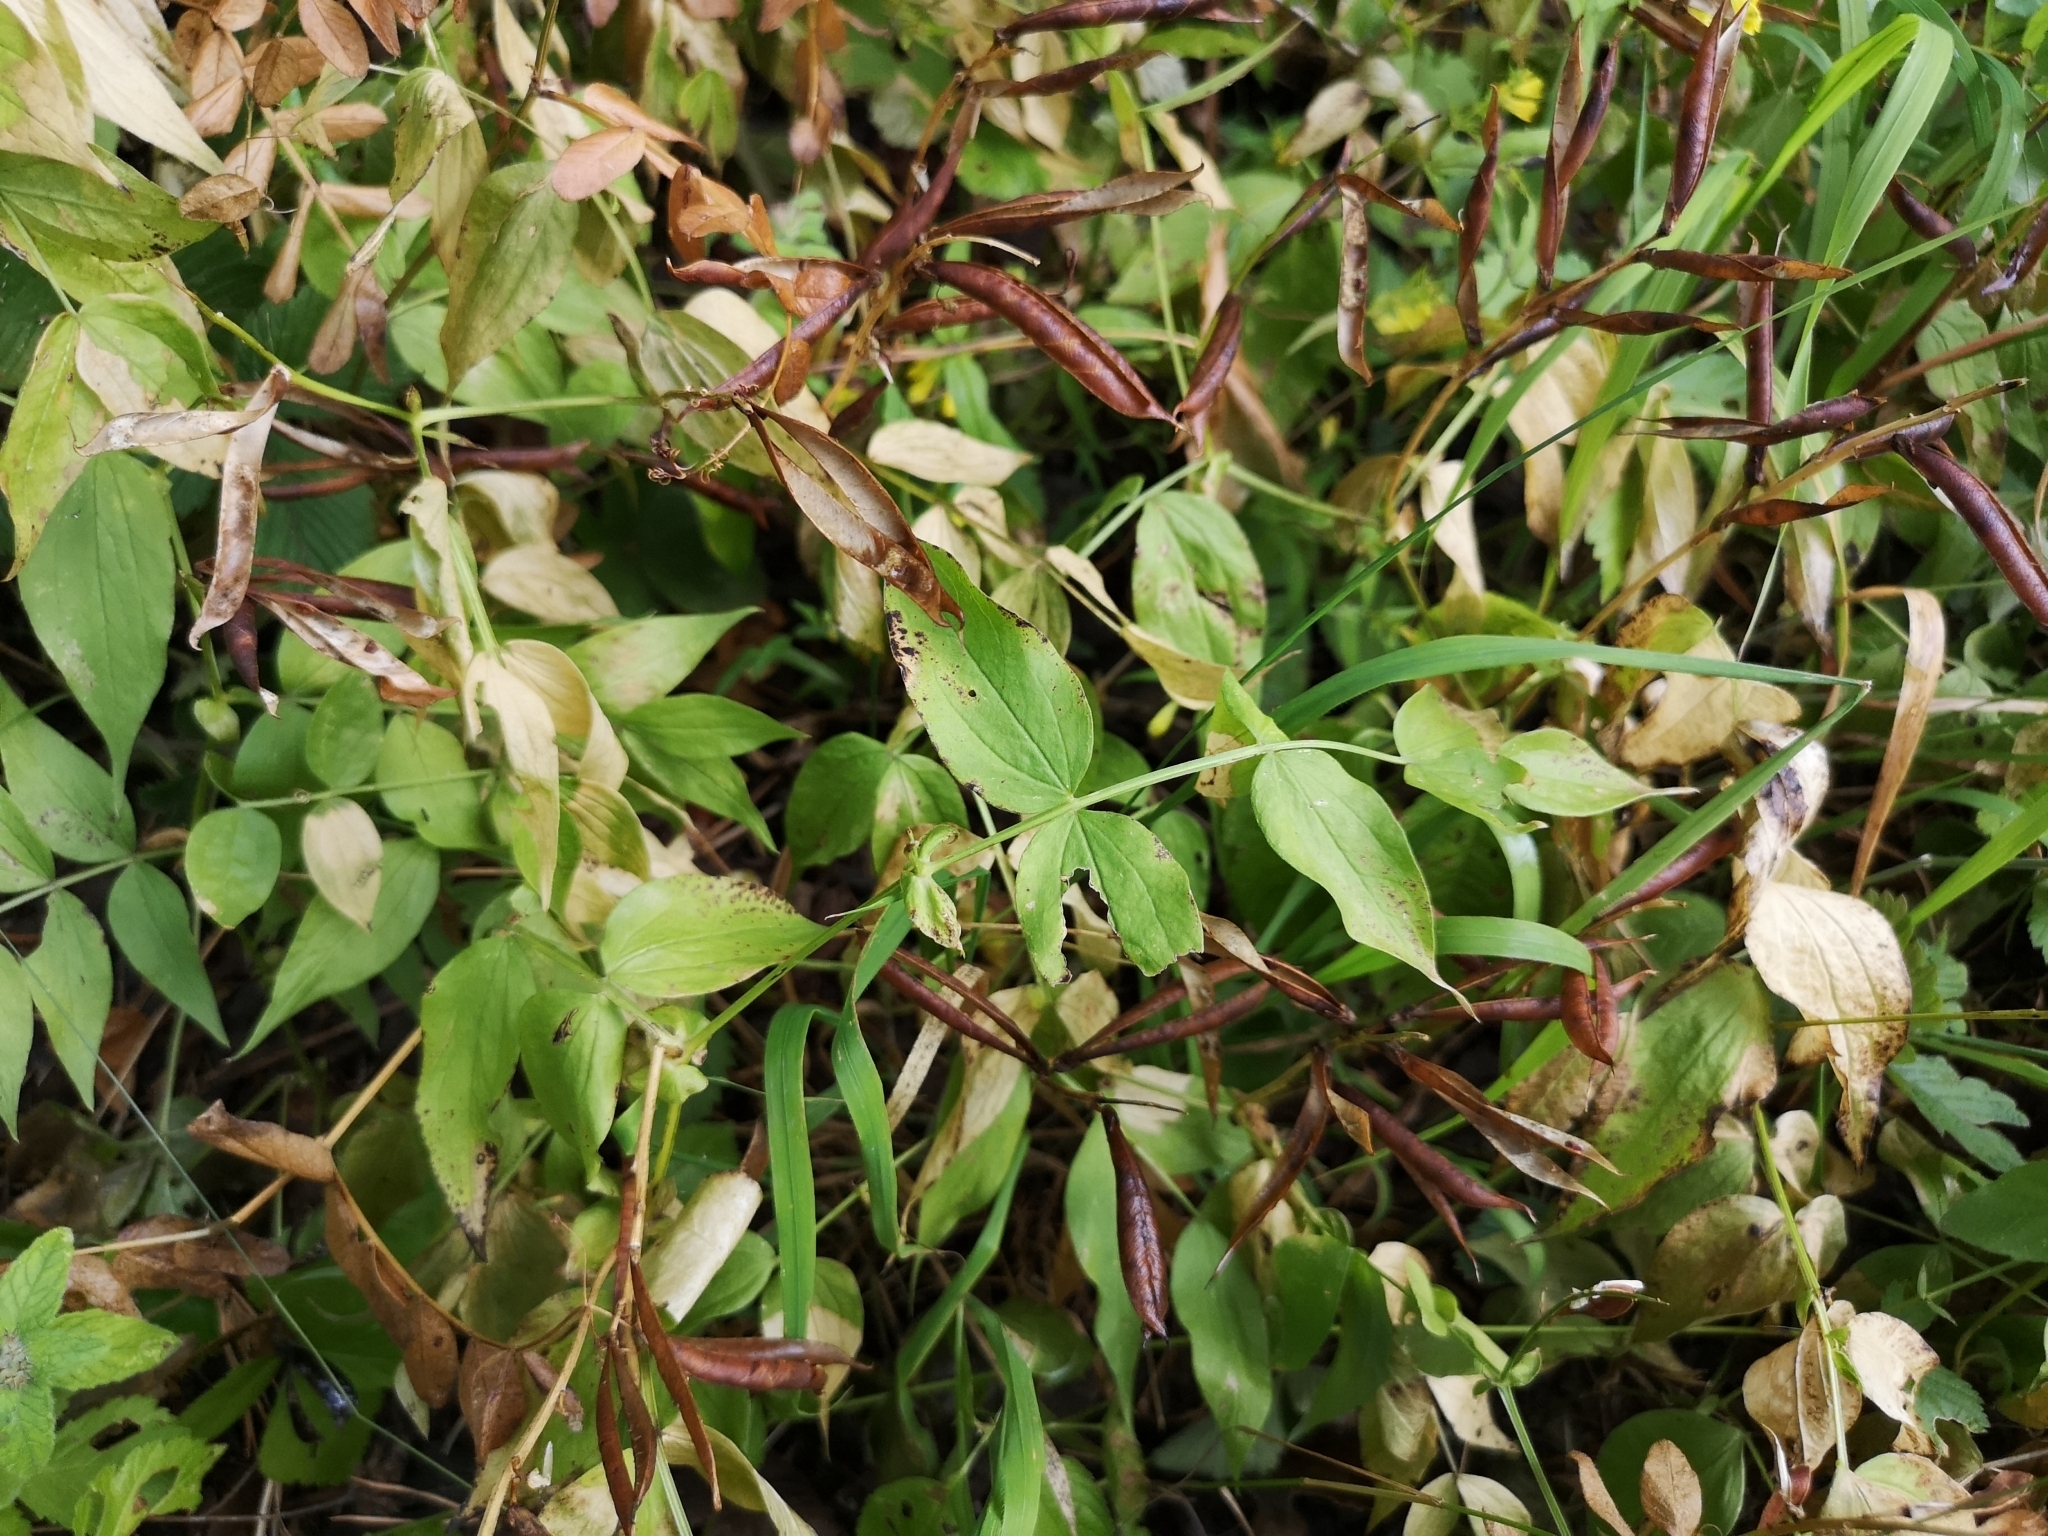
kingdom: Plantae
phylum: Tracheophyta
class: Magnoliopsida
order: Fabales
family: Fabaceae
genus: Lathyrus
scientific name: Lathyrus vernus
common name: Spring pea
